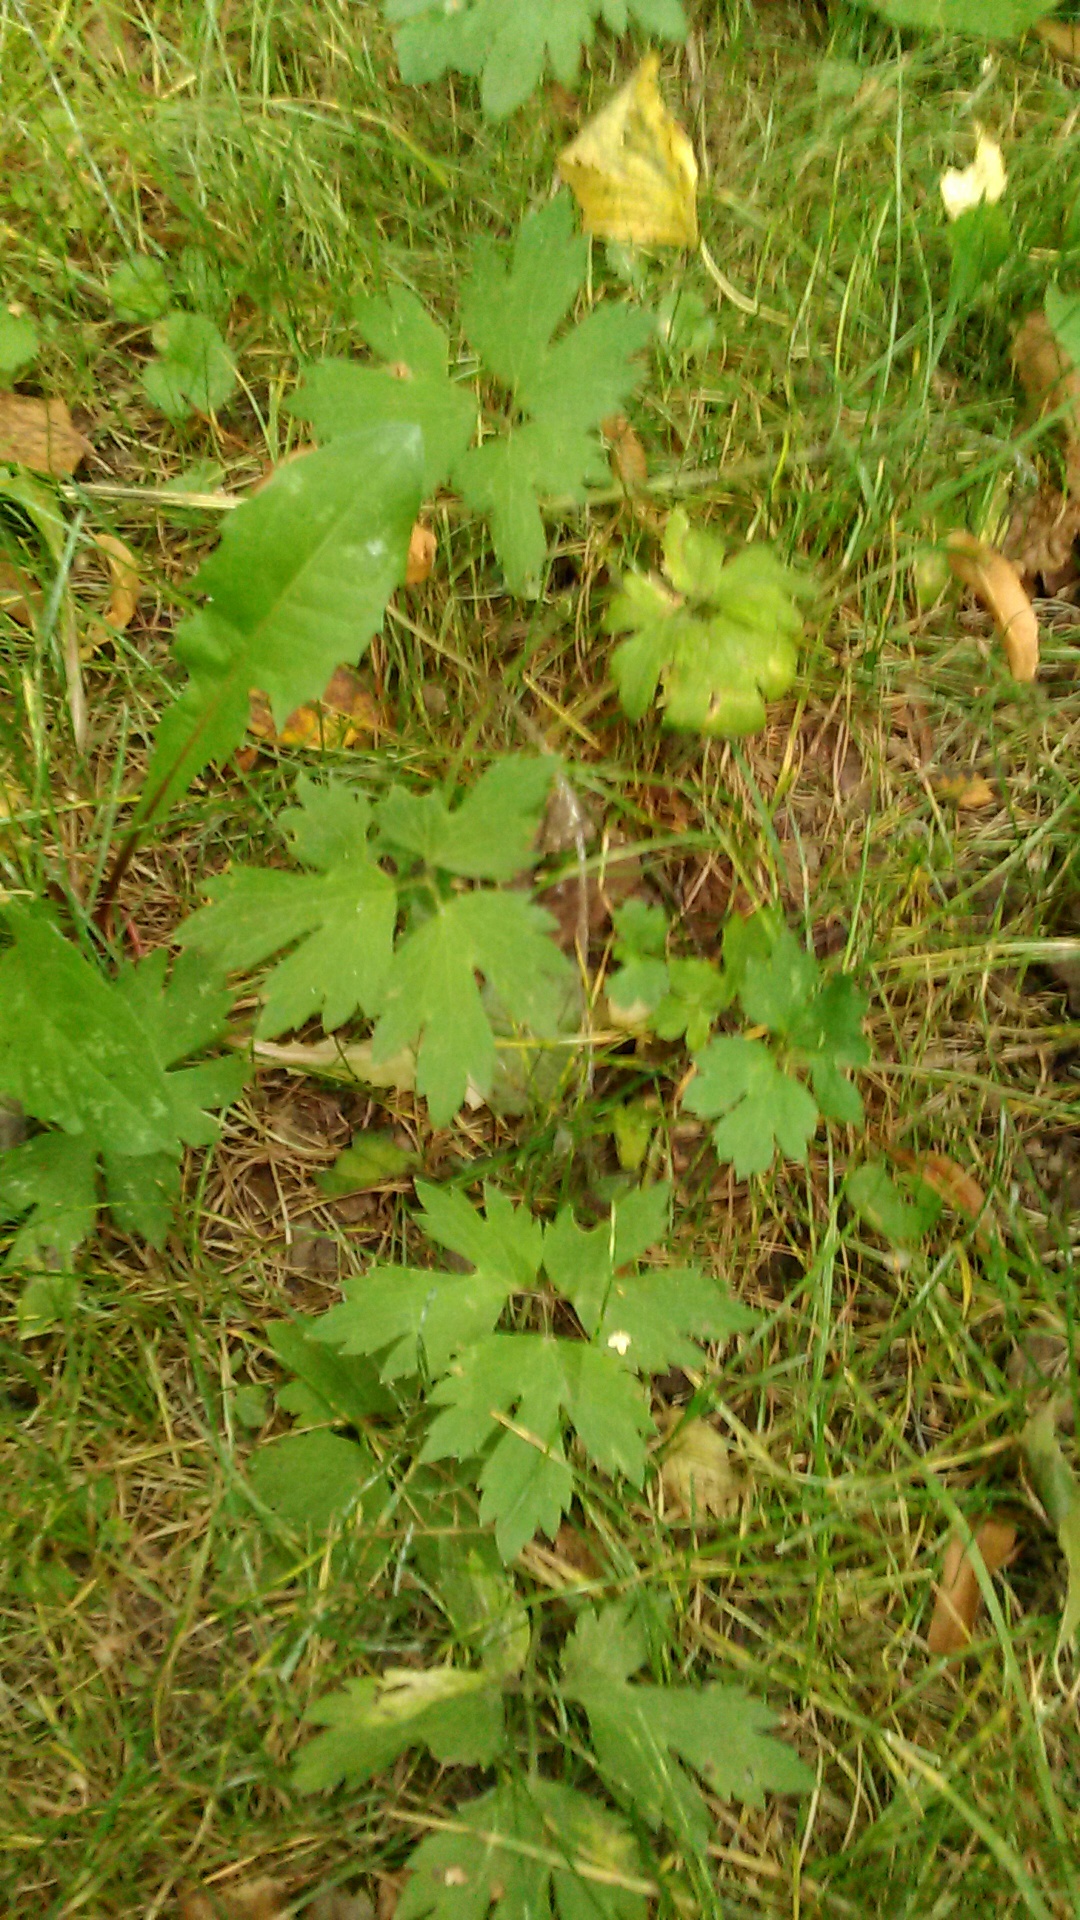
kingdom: Plantae
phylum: Tracheophyta
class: Magnoliopsida
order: Ranunculales
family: Ranunculaceae
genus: Ranunculus
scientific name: Ranunculus repens
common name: Creeping buttercup
